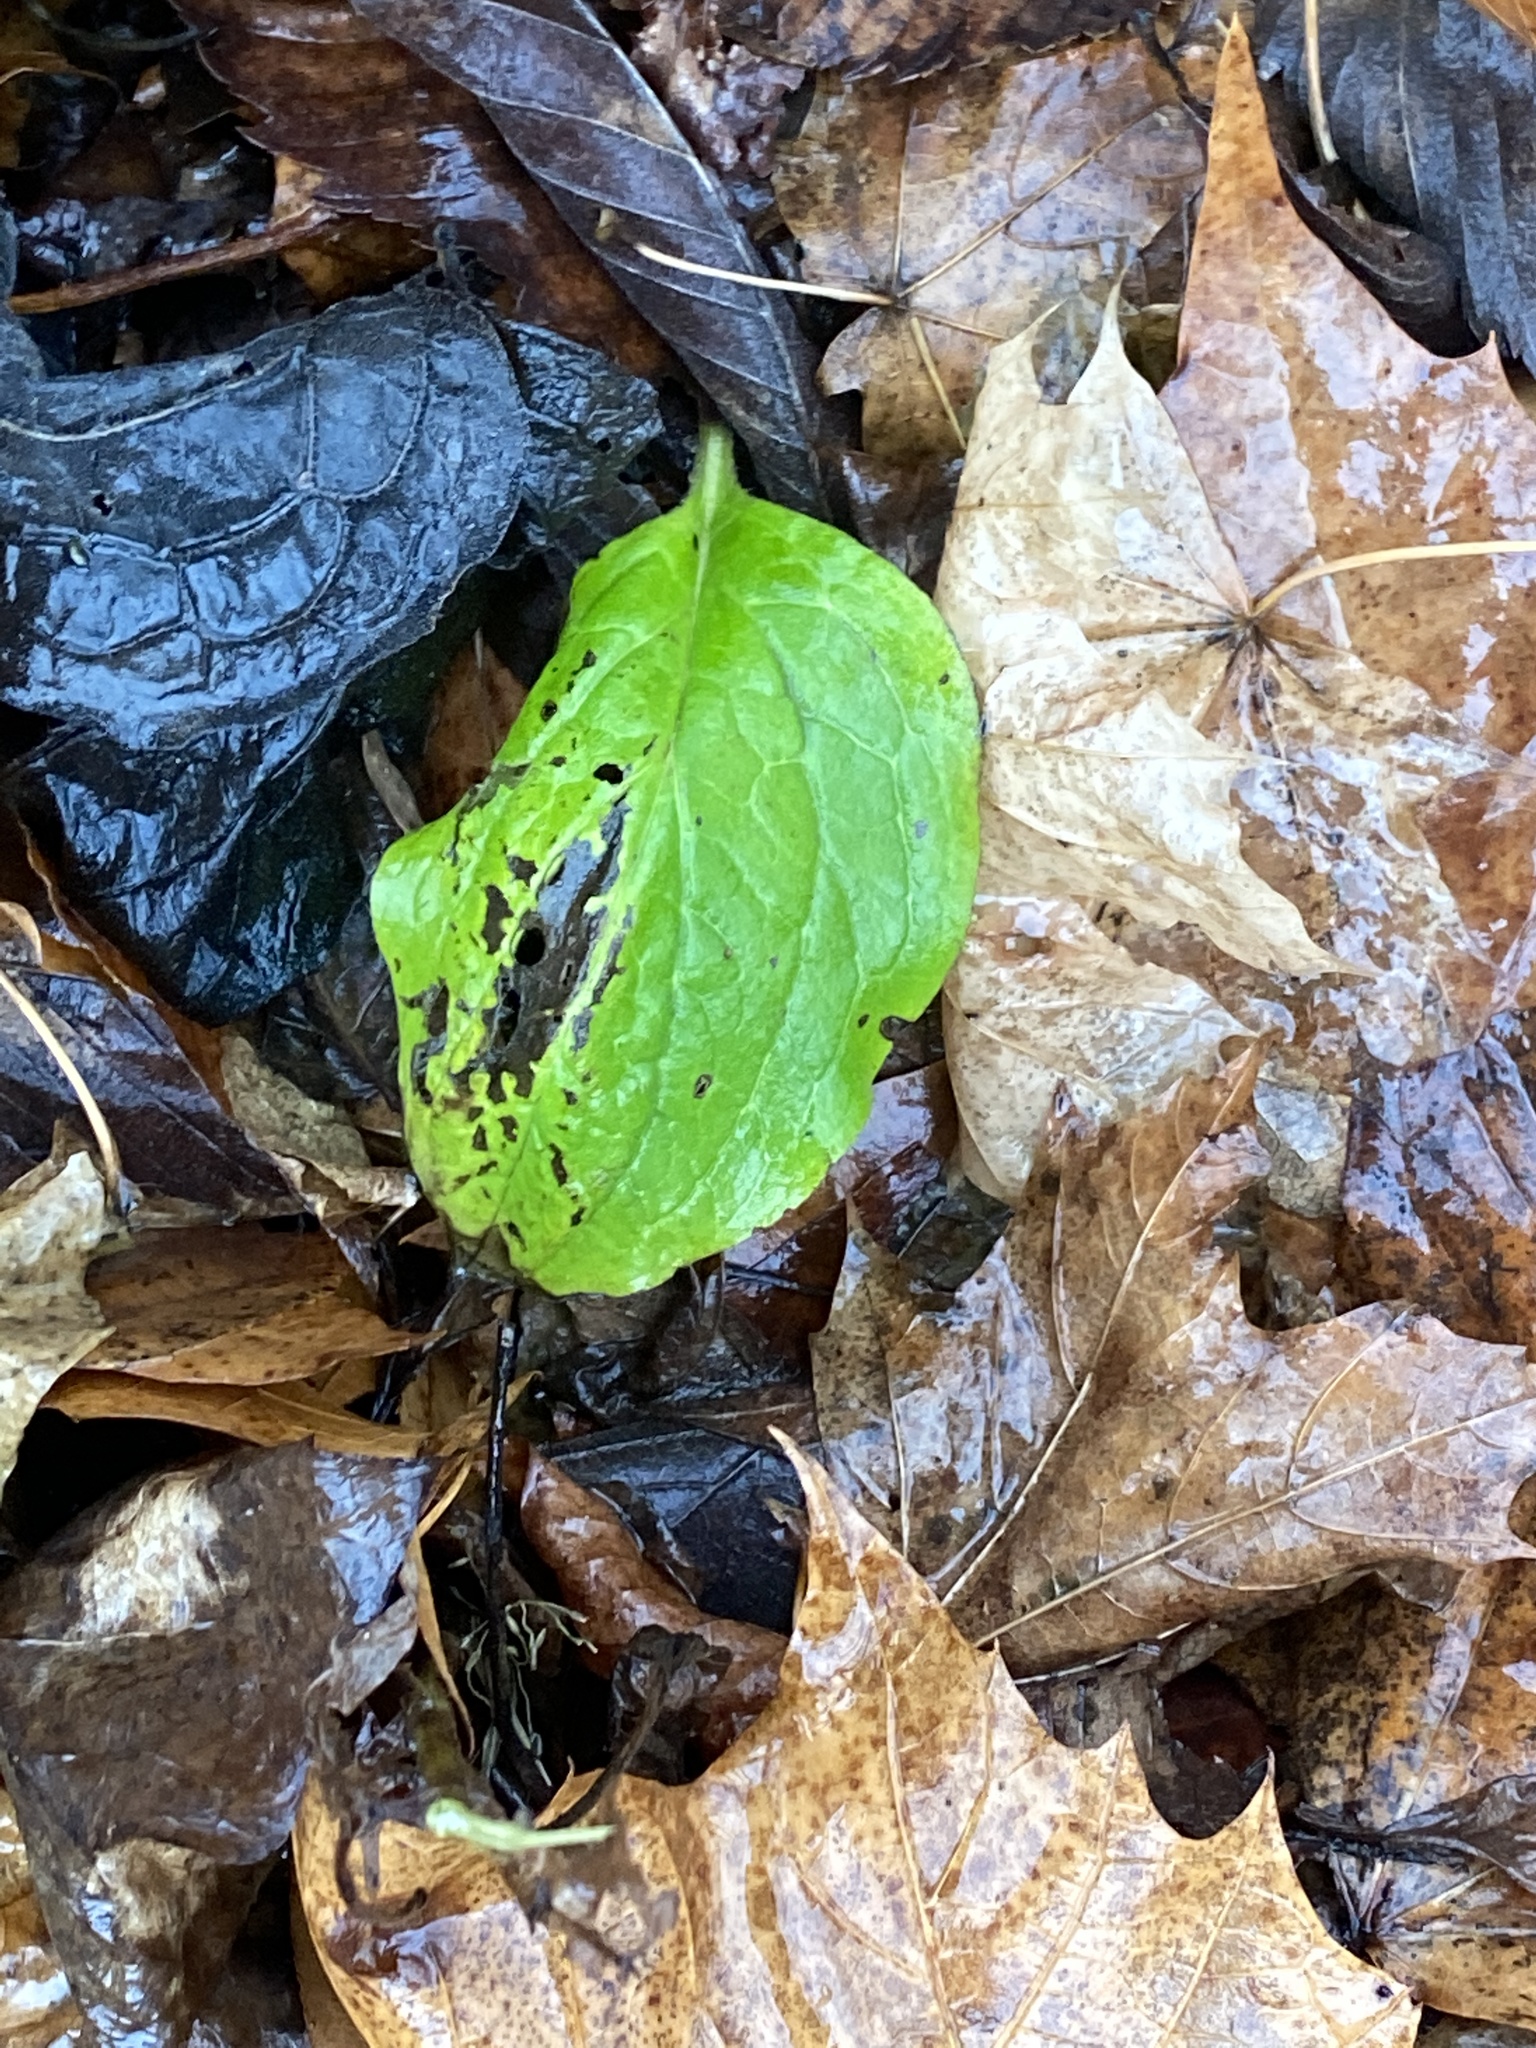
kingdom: Plantae
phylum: Tracheophyta
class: Magnoliopsida
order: Boraginales
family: Boraginaceae
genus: Hackelia
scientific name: Hackelia virginiana
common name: Beggar's-lice
